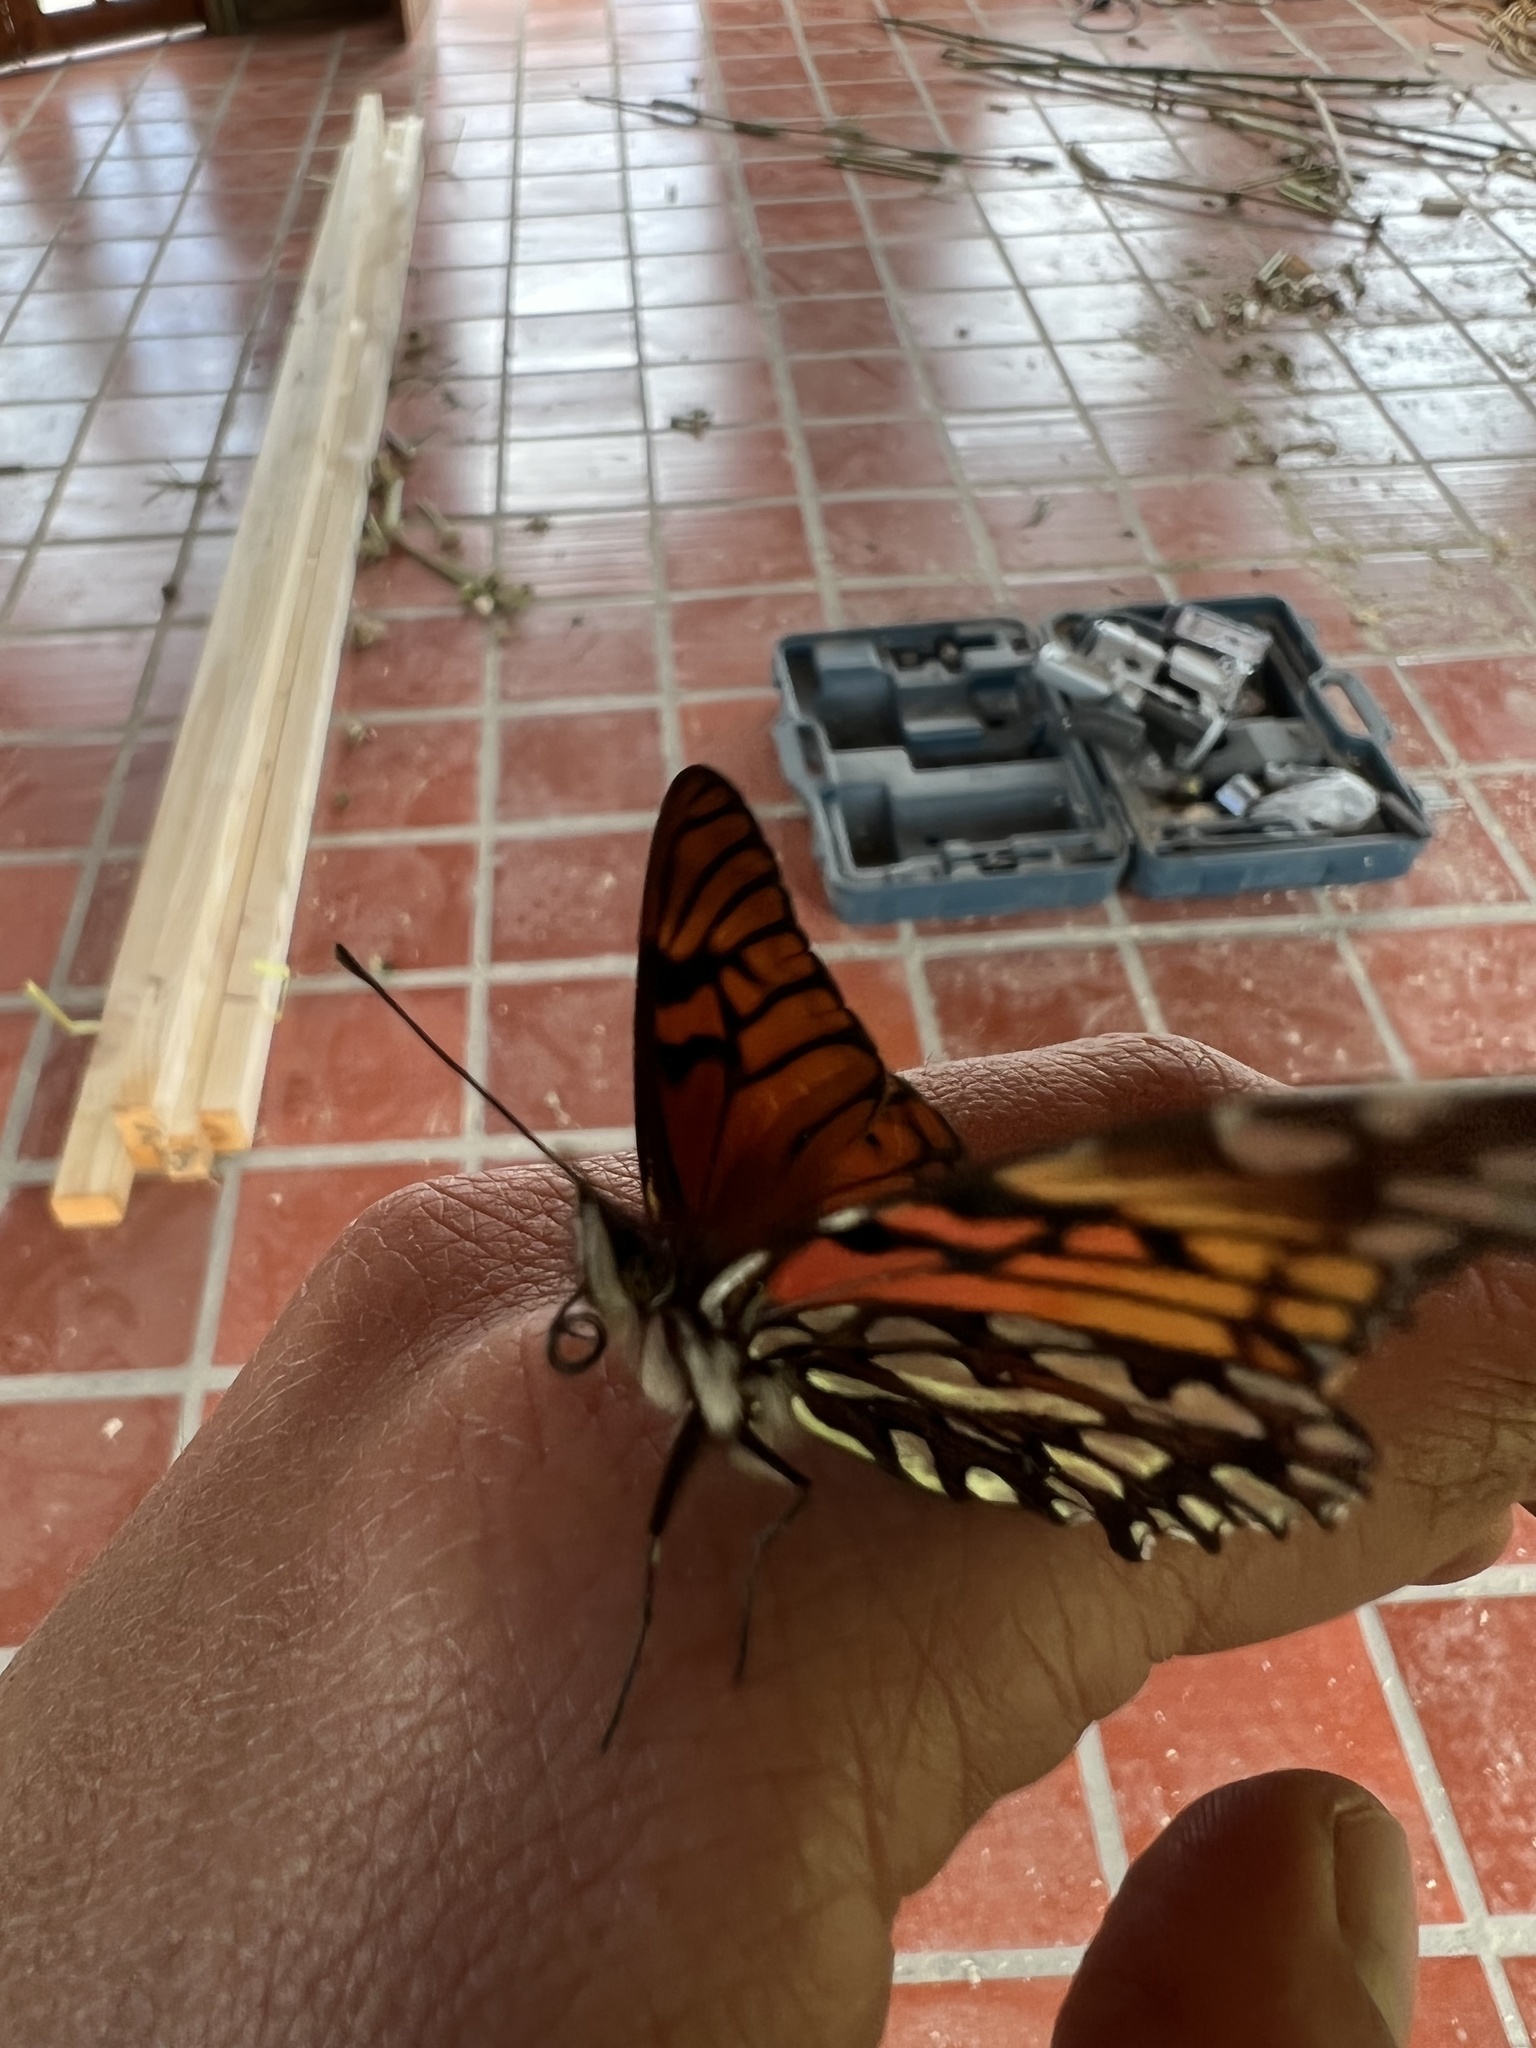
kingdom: Animalia
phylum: Arthropoda
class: Insecta
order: Lepidoptera
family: Nymphalidae
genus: Dione
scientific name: Dione glycera
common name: Andean silverspot
